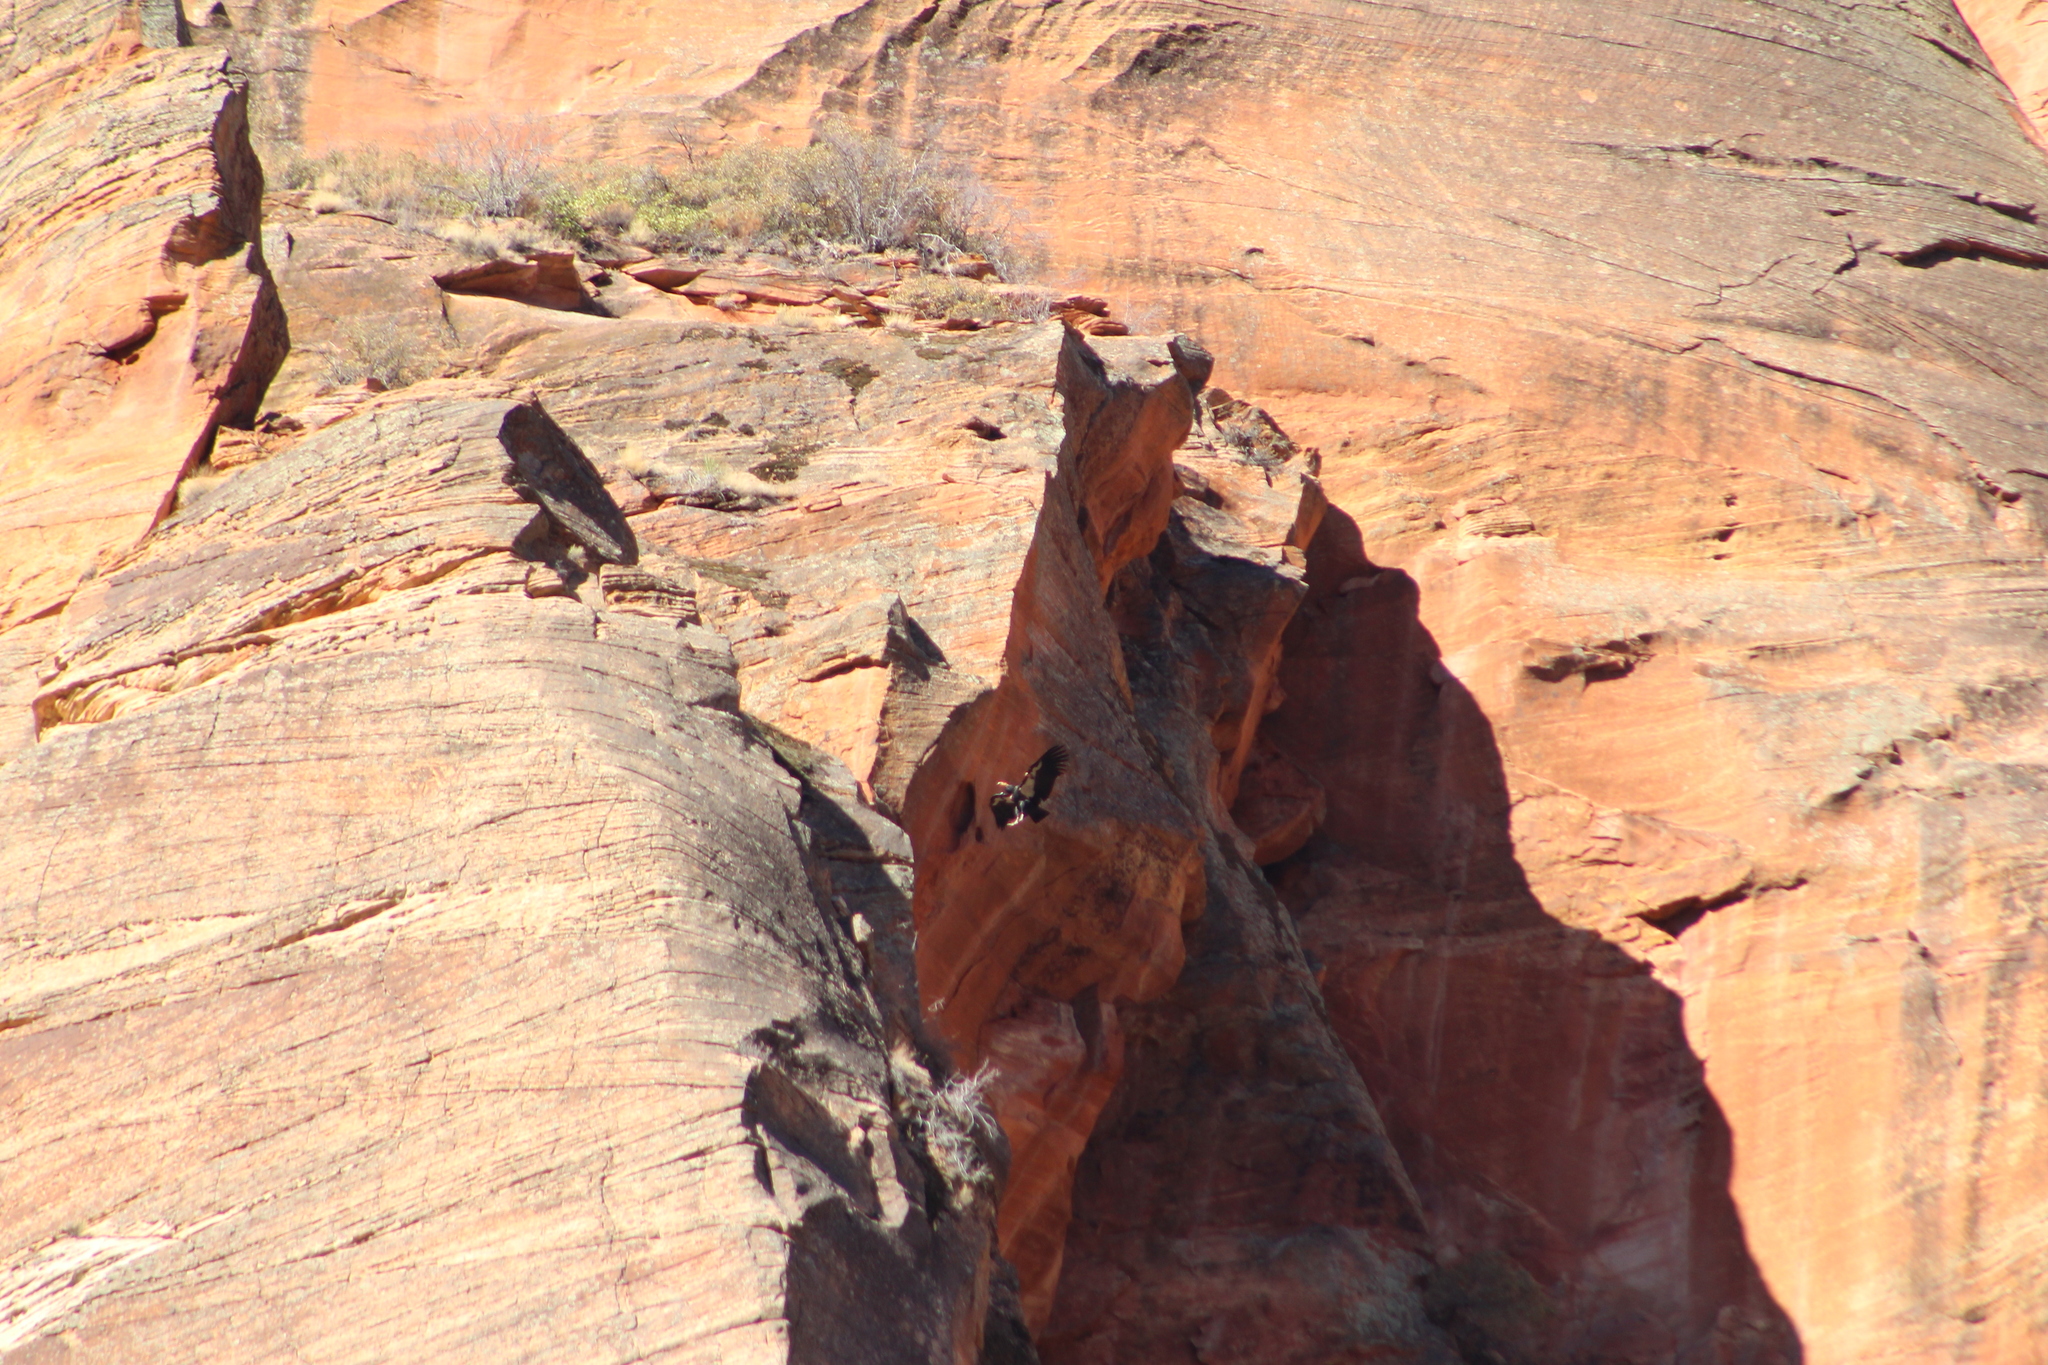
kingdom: Animalia
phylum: Chordata
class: Aves
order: Accipitriformes
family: Cathartidae
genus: Gymnogyps
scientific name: Gymnogyps californianus
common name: California condor
